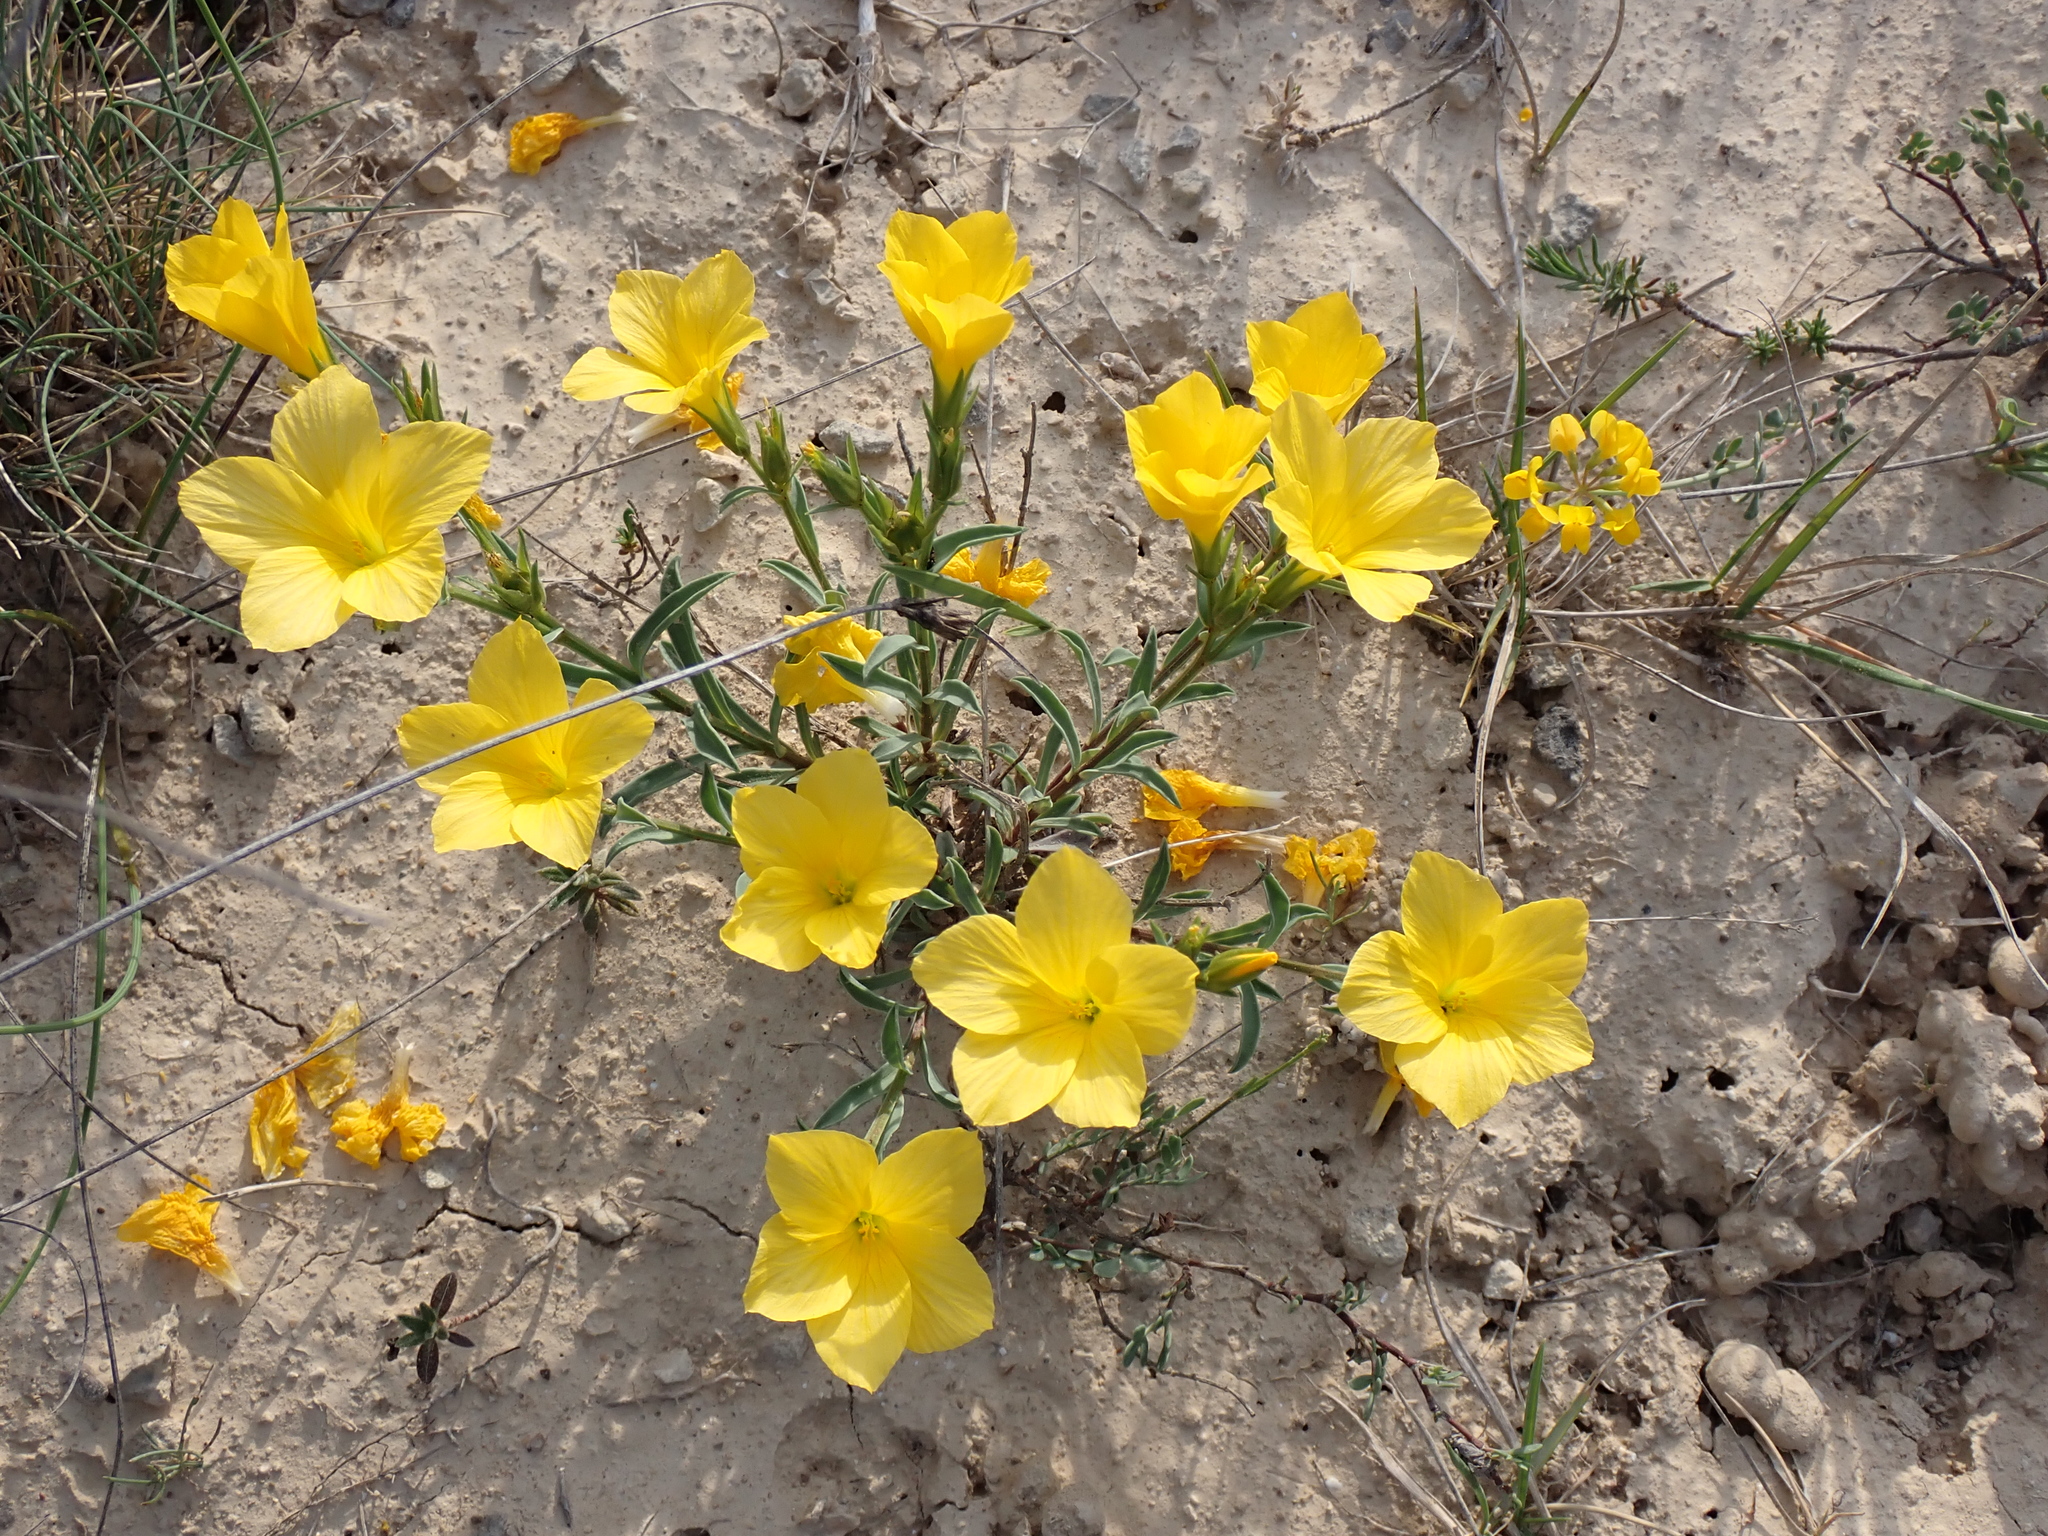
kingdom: Plantae
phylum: Tracheophyta
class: Magnoliopsida
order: Malpighiales
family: Linaceae
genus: Linum
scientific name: Linum campanulatum
